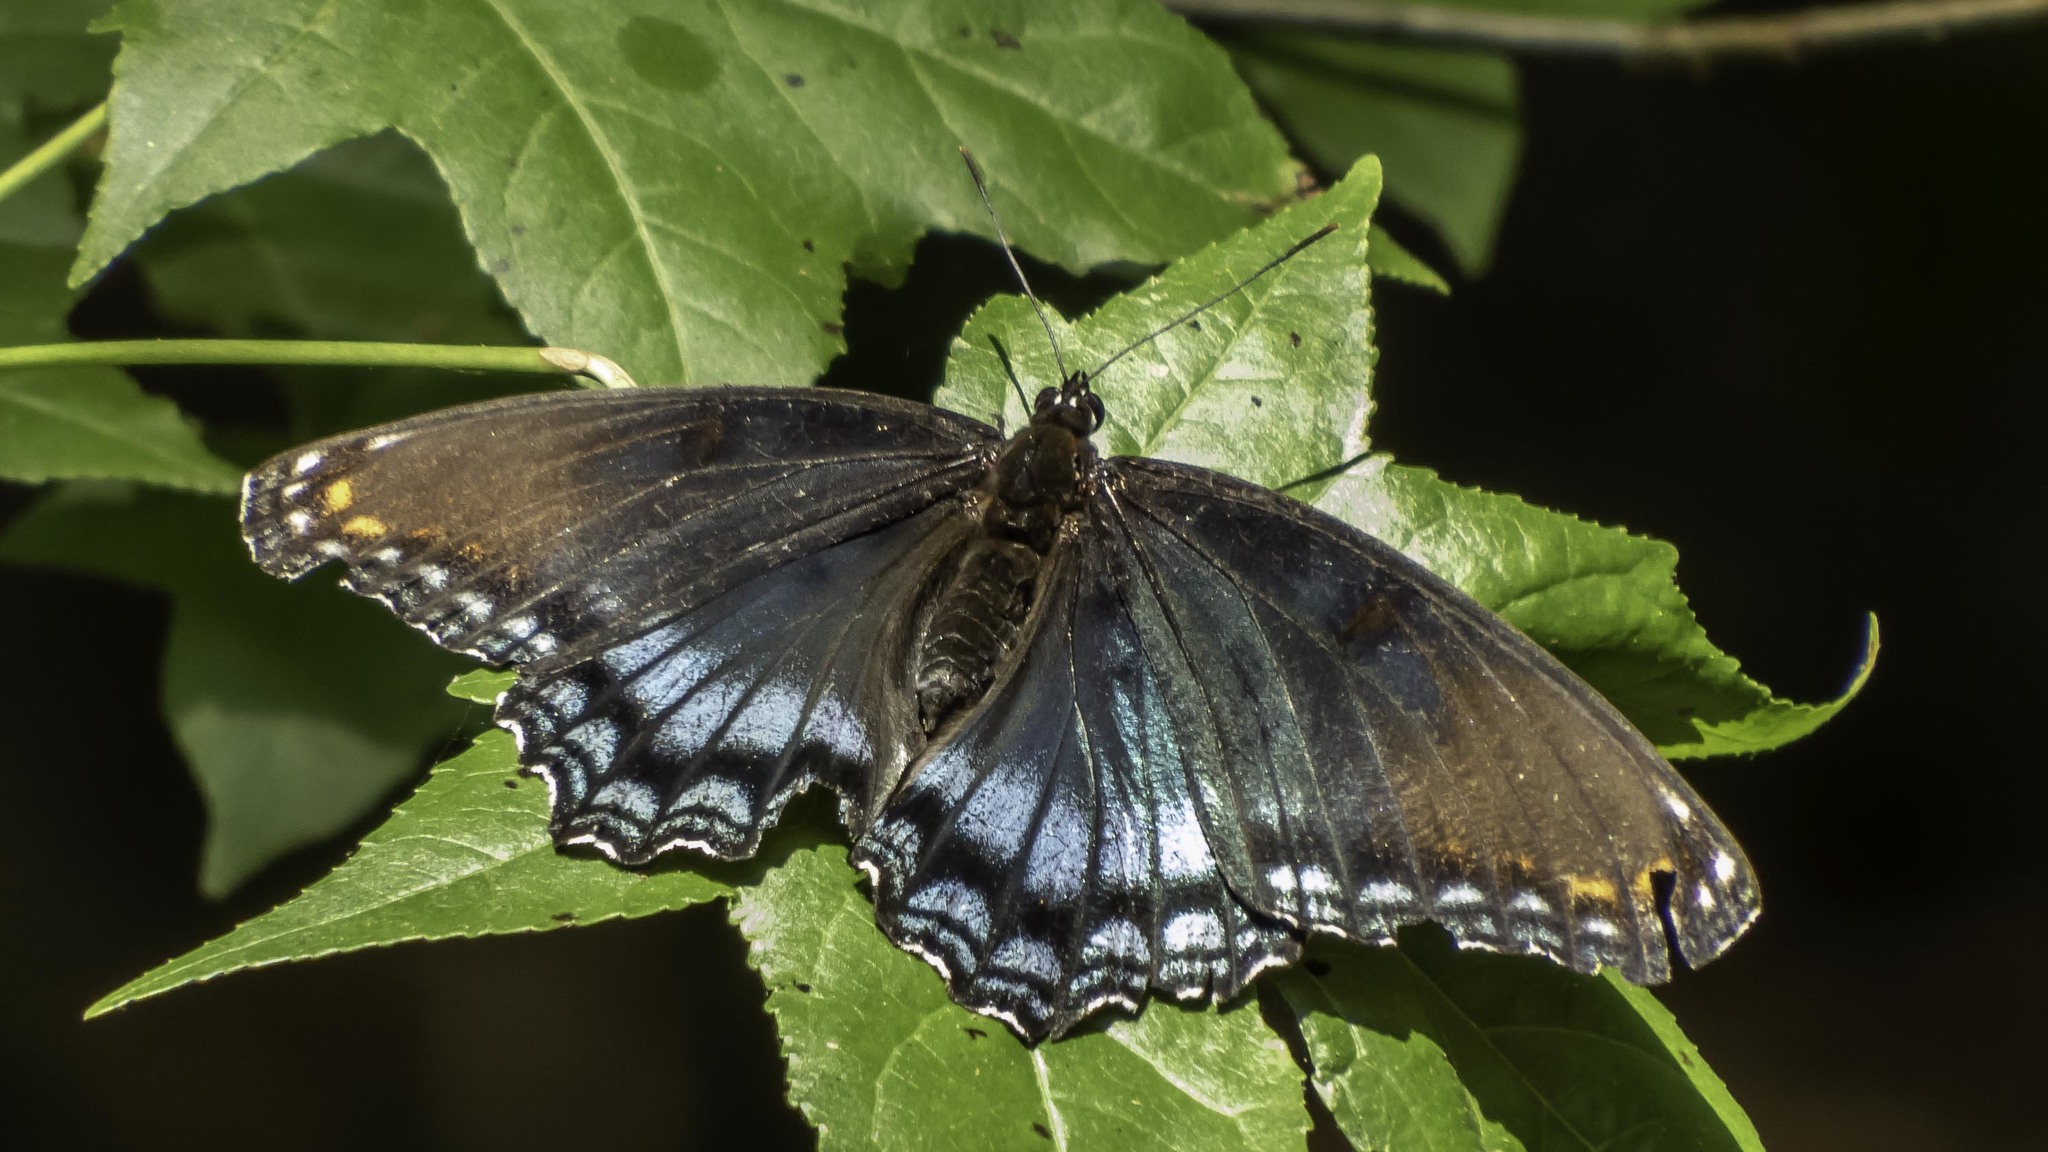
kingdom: Animalia
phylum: Arthropoda
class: Insecta
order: Lepidoptera
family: Nymphalidae
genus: Limenitis
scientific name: Limenitis astyanax
